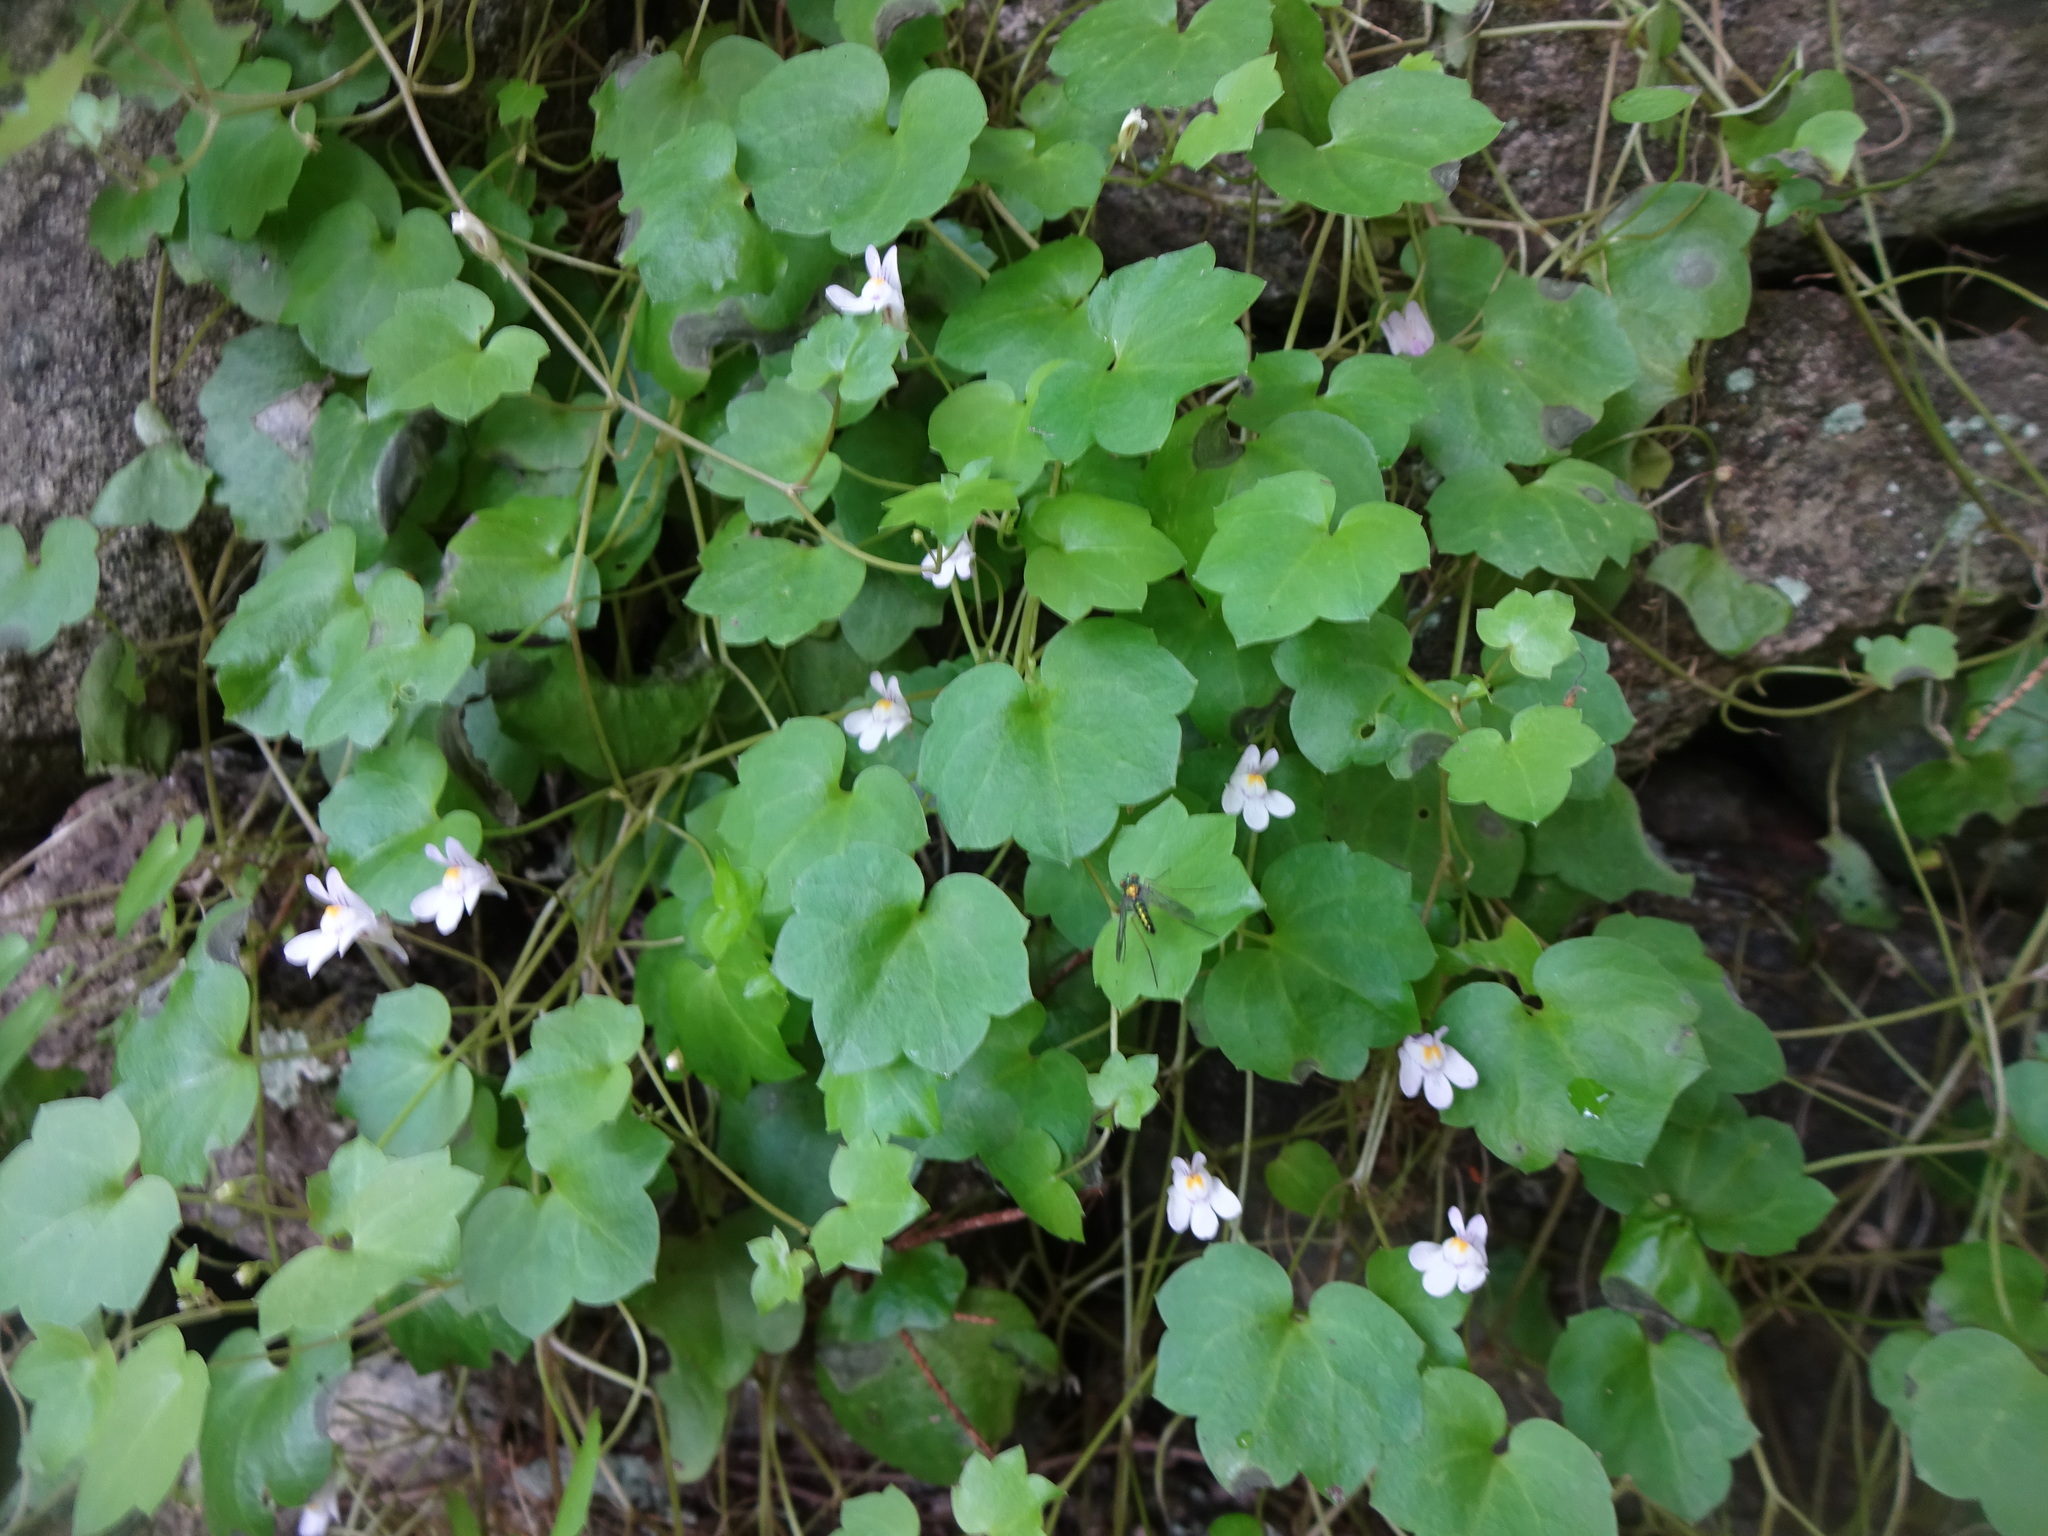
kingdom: Plantae
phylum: Tracheophyta
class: Magnoliopsida
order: Lamiales
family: Plantaginaceae
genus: Cymbalaria
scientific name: Cymbalaria muralis
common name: Ivy-leaved toadflax
